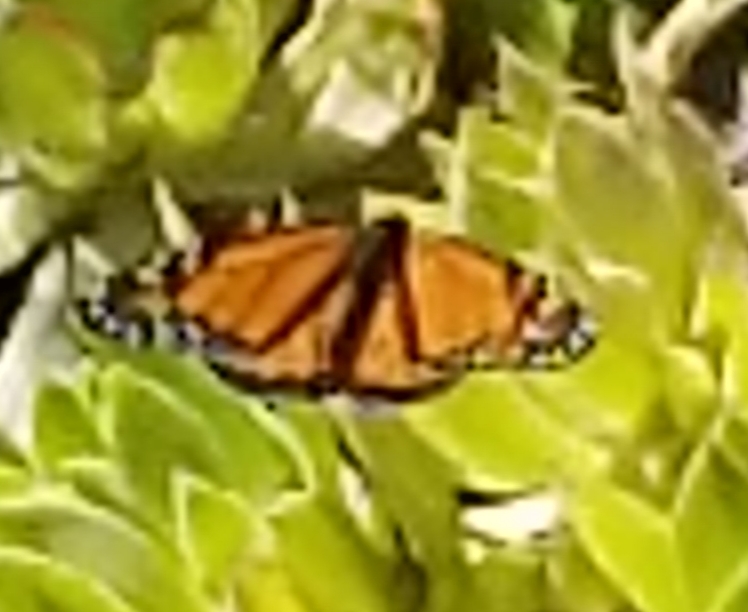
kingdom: Animalia
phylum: Arthropoda
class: Insecta
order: Lepidoptera
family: Nymphalidae
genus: Danaus
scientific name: Danaus plexippus
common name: Monarch
